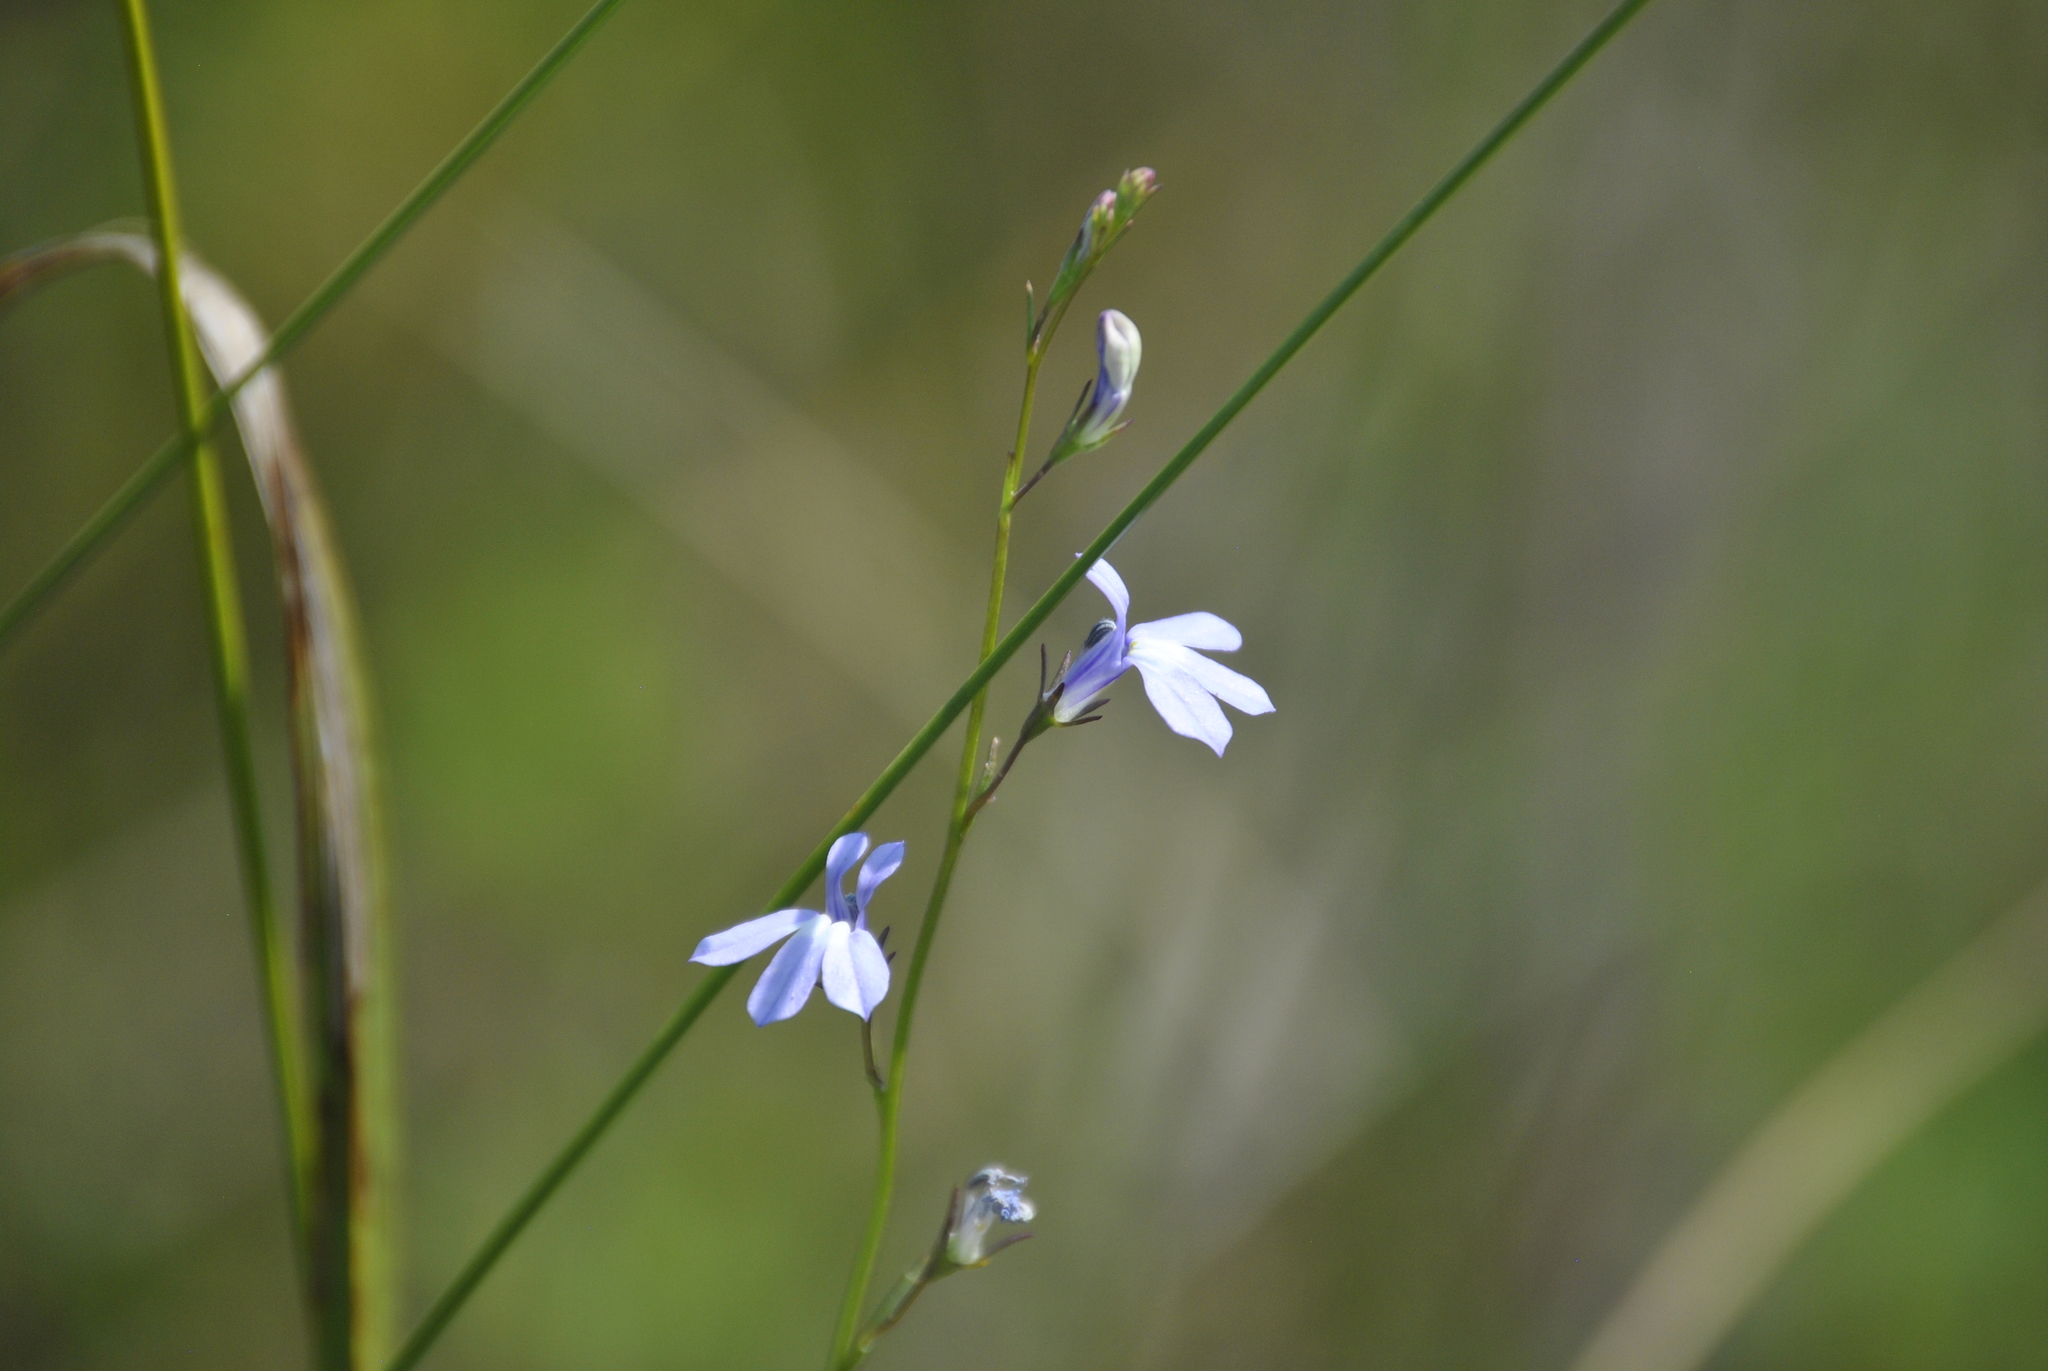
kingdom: Plantae
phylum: Tracheophyta
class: Magnoliopsida
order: Asterales
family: Campanulaceae
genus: Lobelia
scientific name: Lobelia kalmii
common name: Kalm's lobelia
